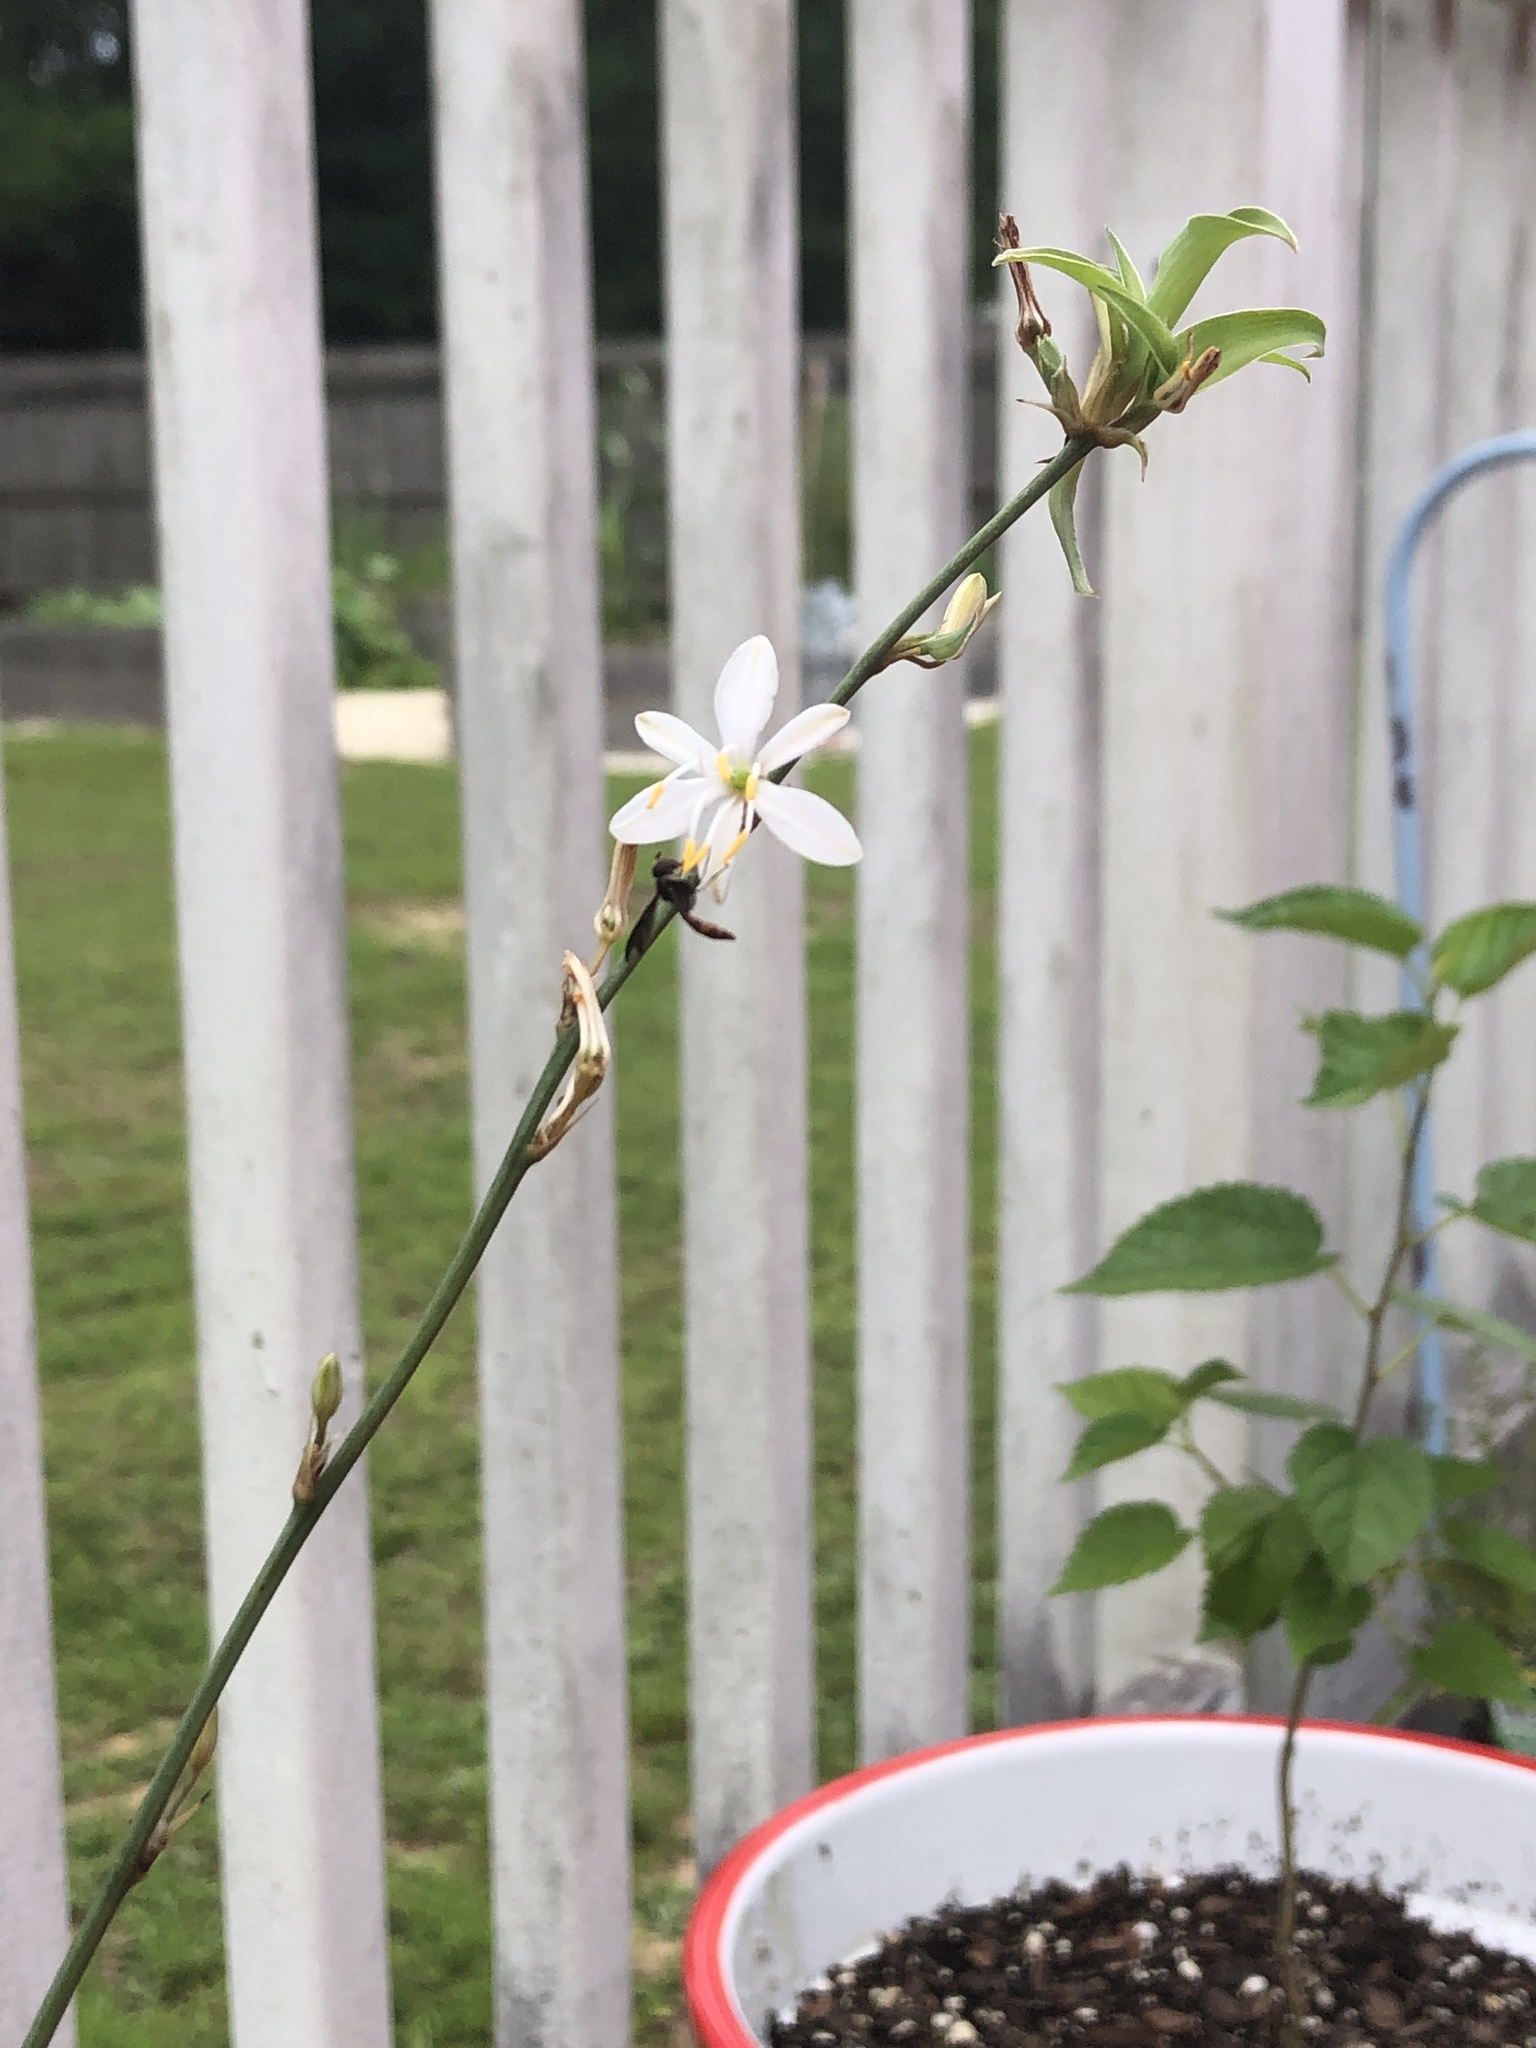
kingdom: Animalia
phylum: Arthropoda
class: Insecta
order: Diptera
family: Syrphidae
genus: Ocyptamus
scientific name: Ocyptamus fuscipennis
